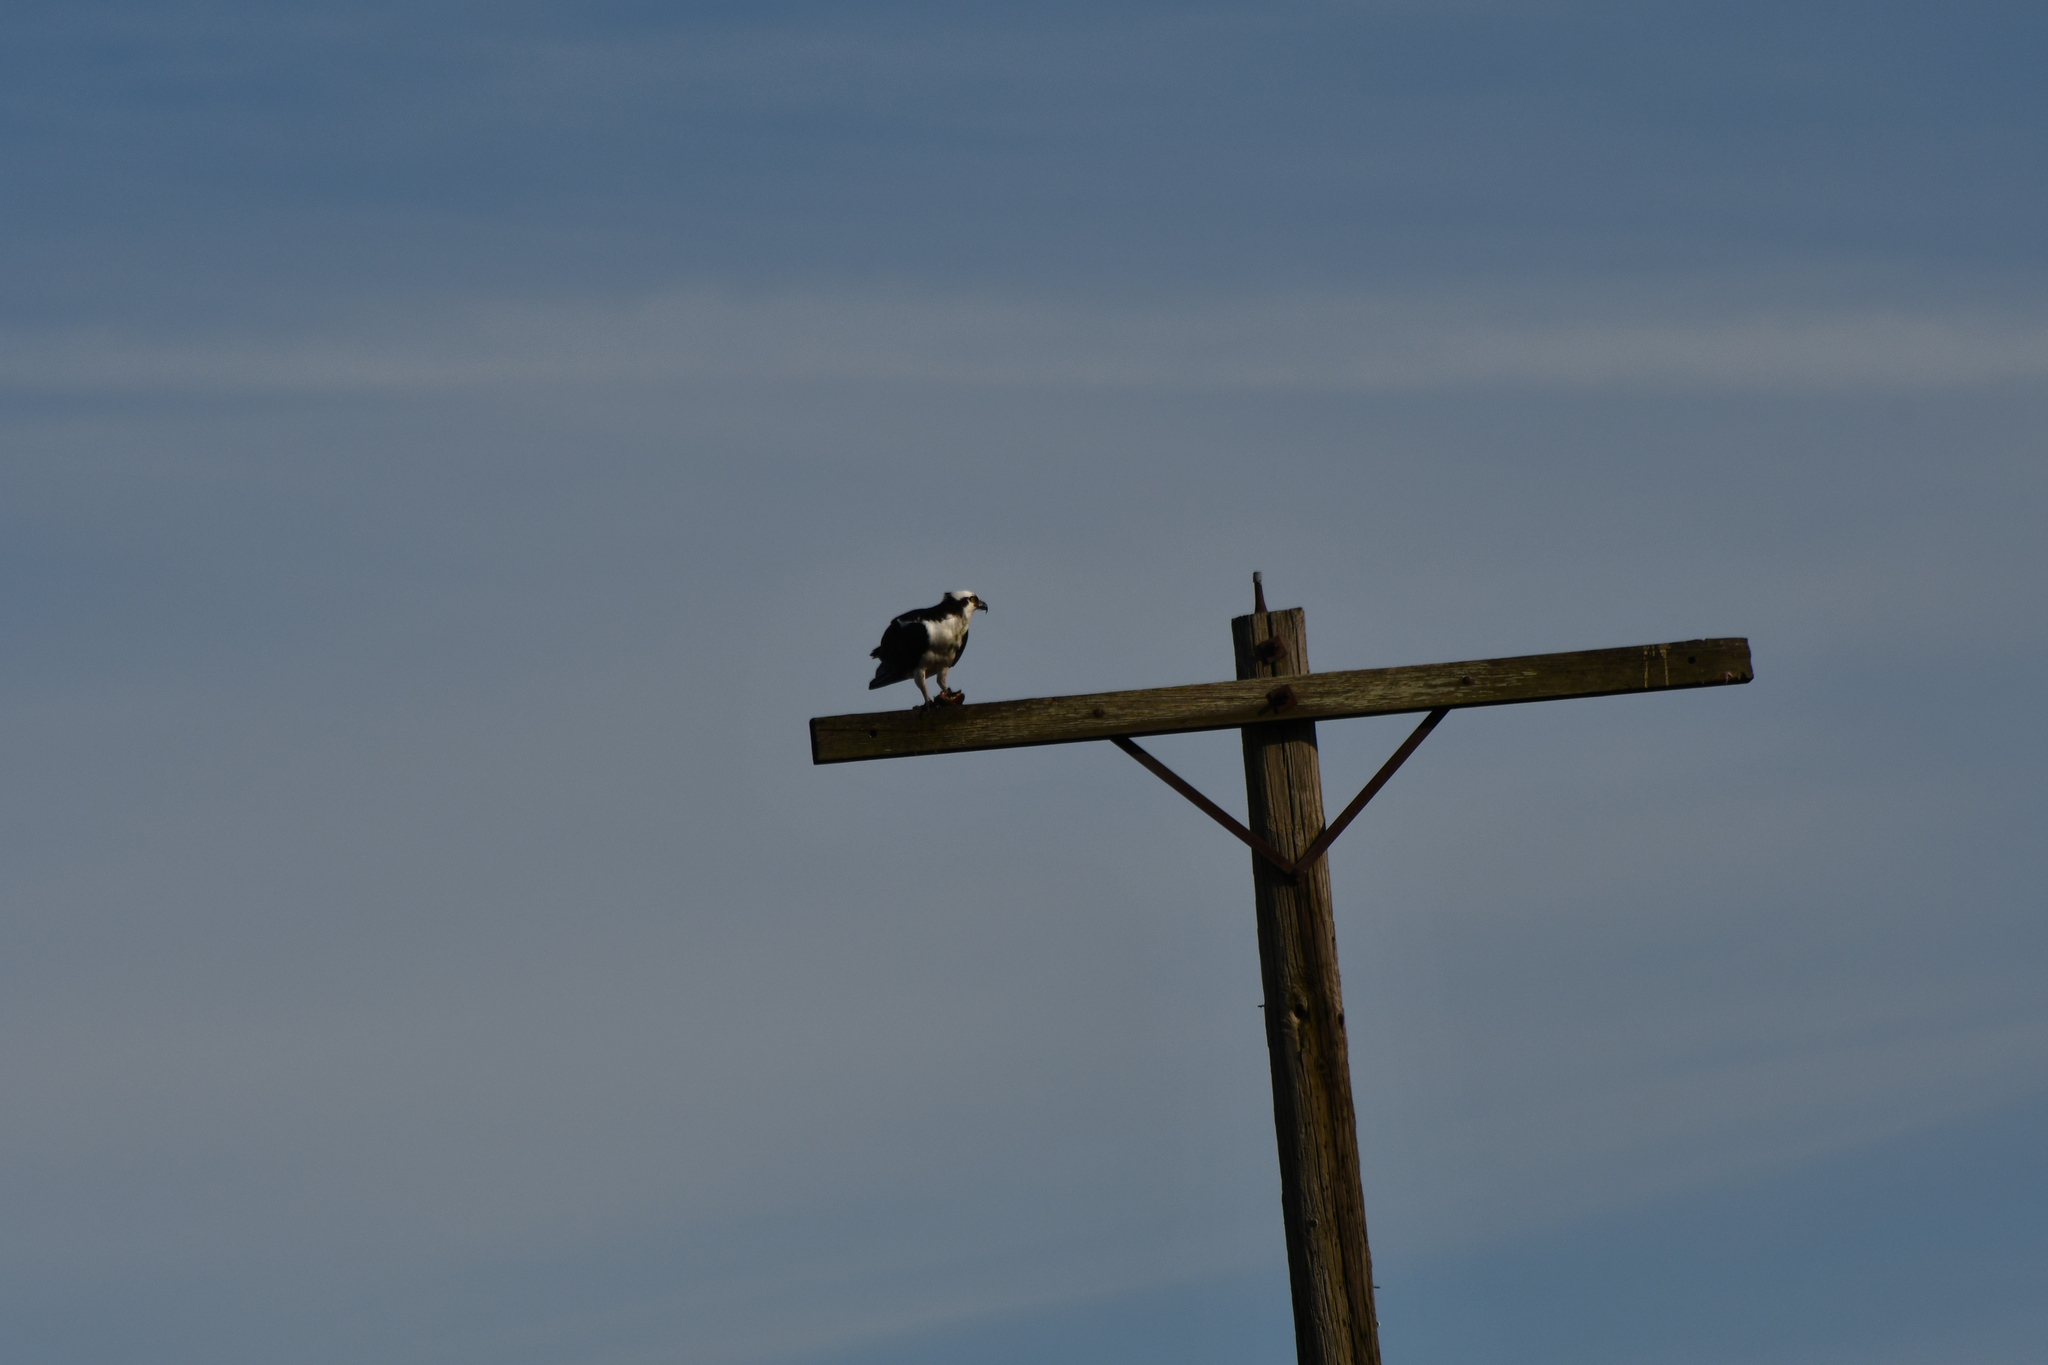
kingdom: Animalia
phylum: Chordata
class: Aves
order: Accipitriformes
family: Pandionidae
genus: Pandion
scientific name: Pandion haliaetus
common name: Osprey
